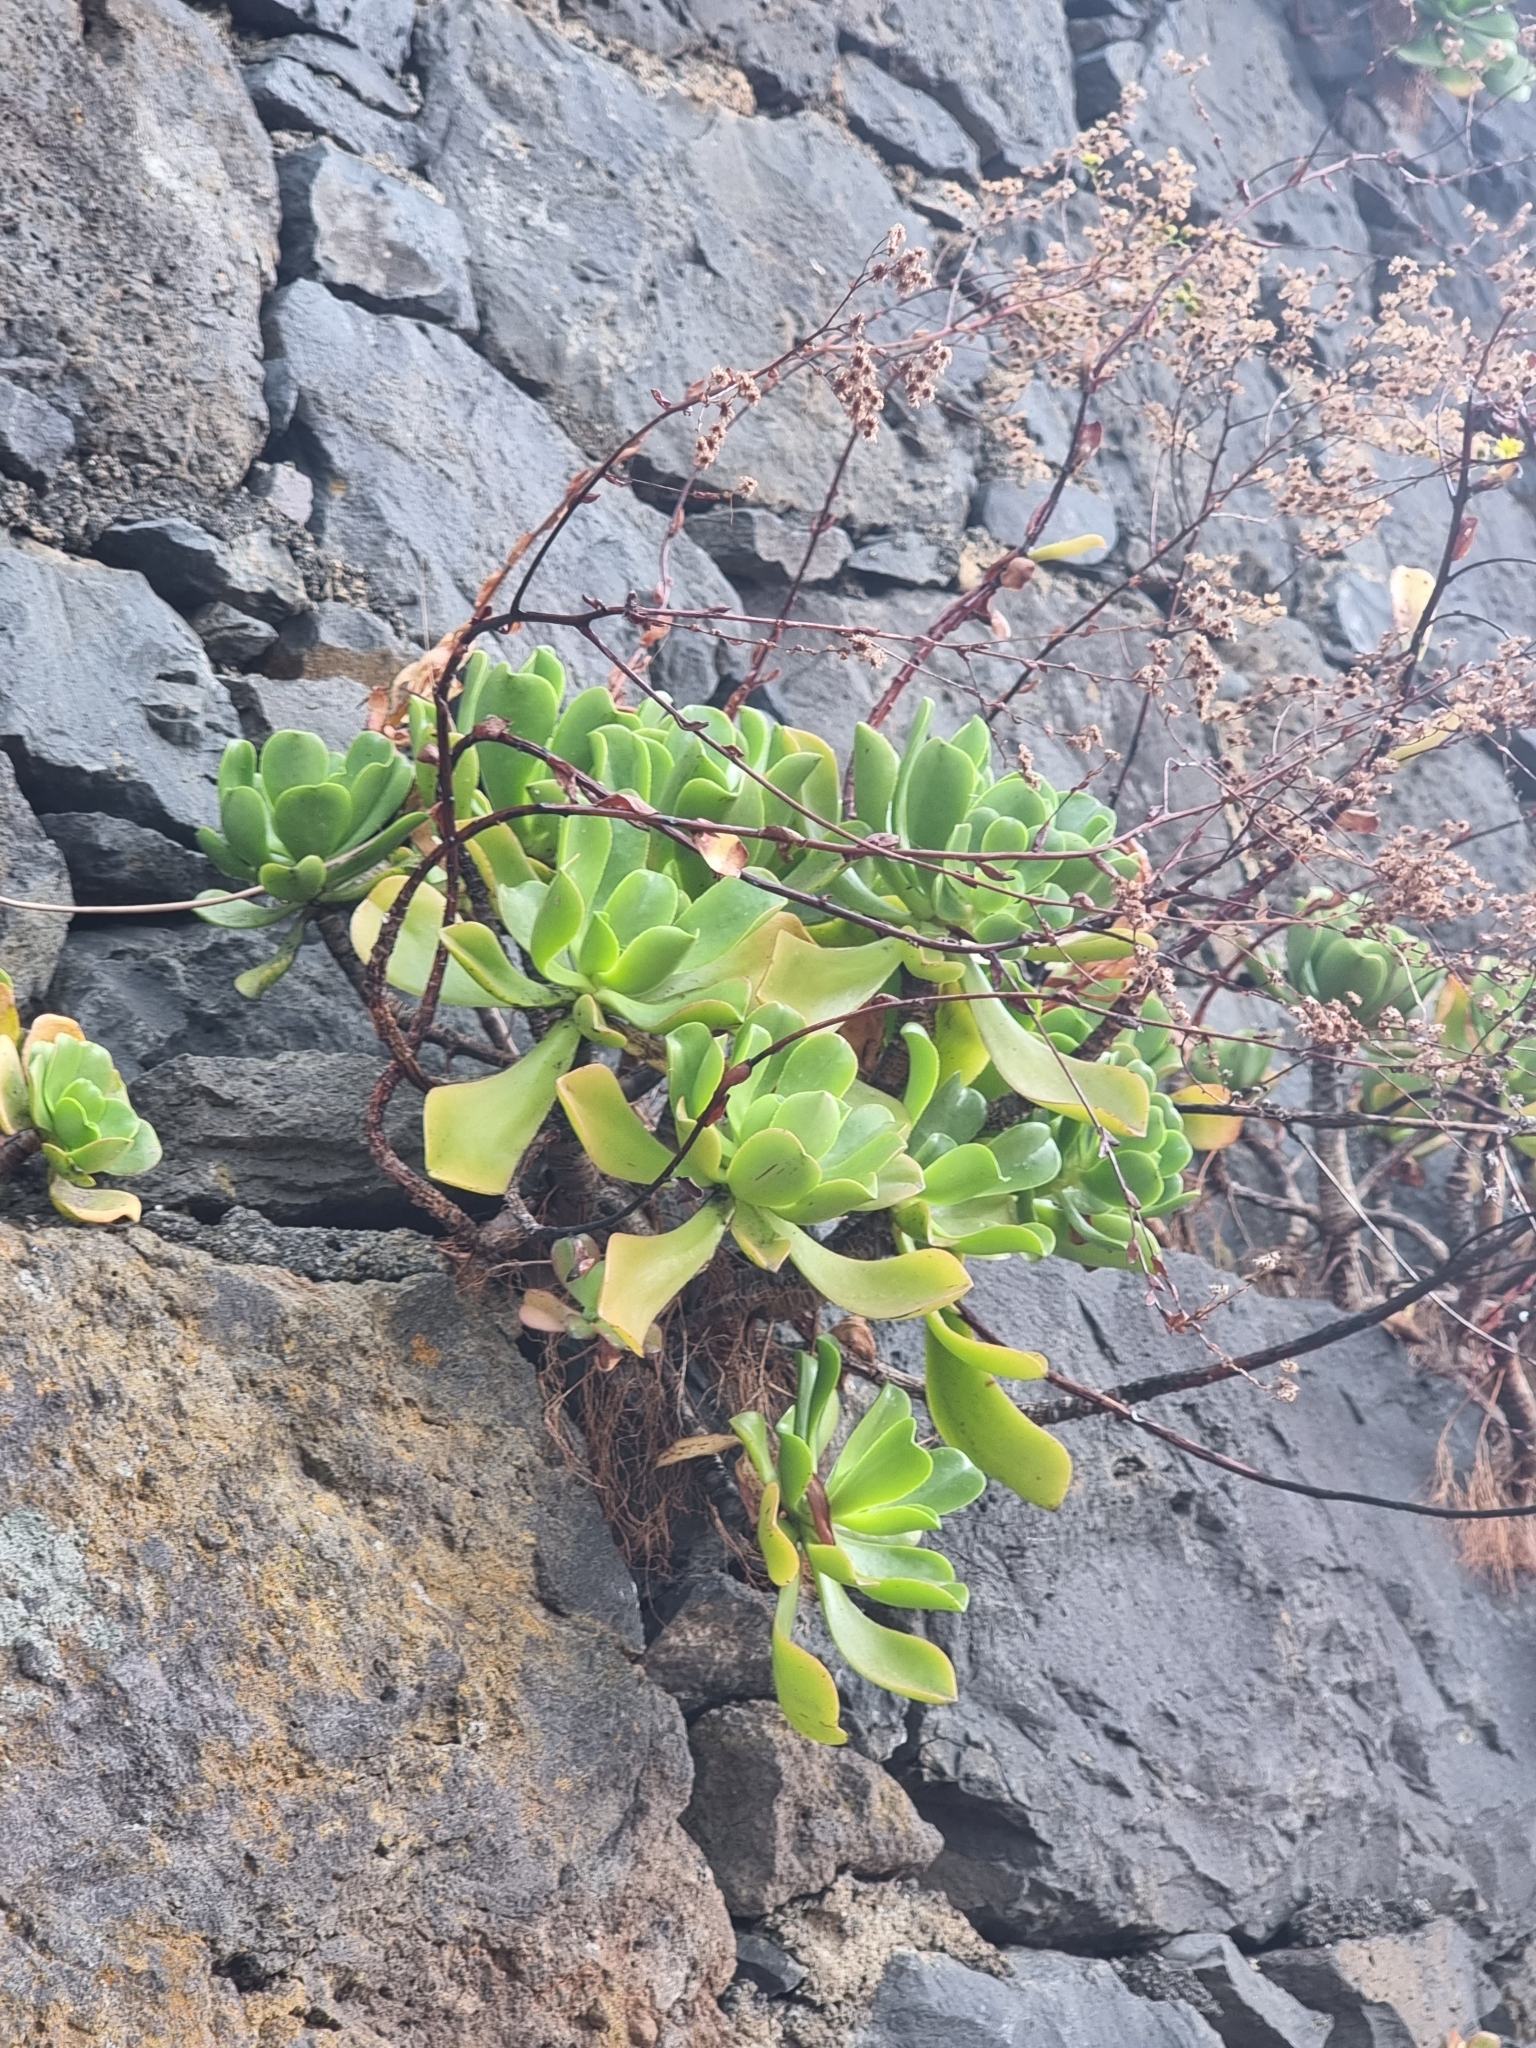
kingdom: Plantae
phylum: Tracheophyta
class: Magnoliopsida
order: Saxifragales
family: Crassulaceae
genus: Aeonium
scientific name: Aeonium glutinosum
